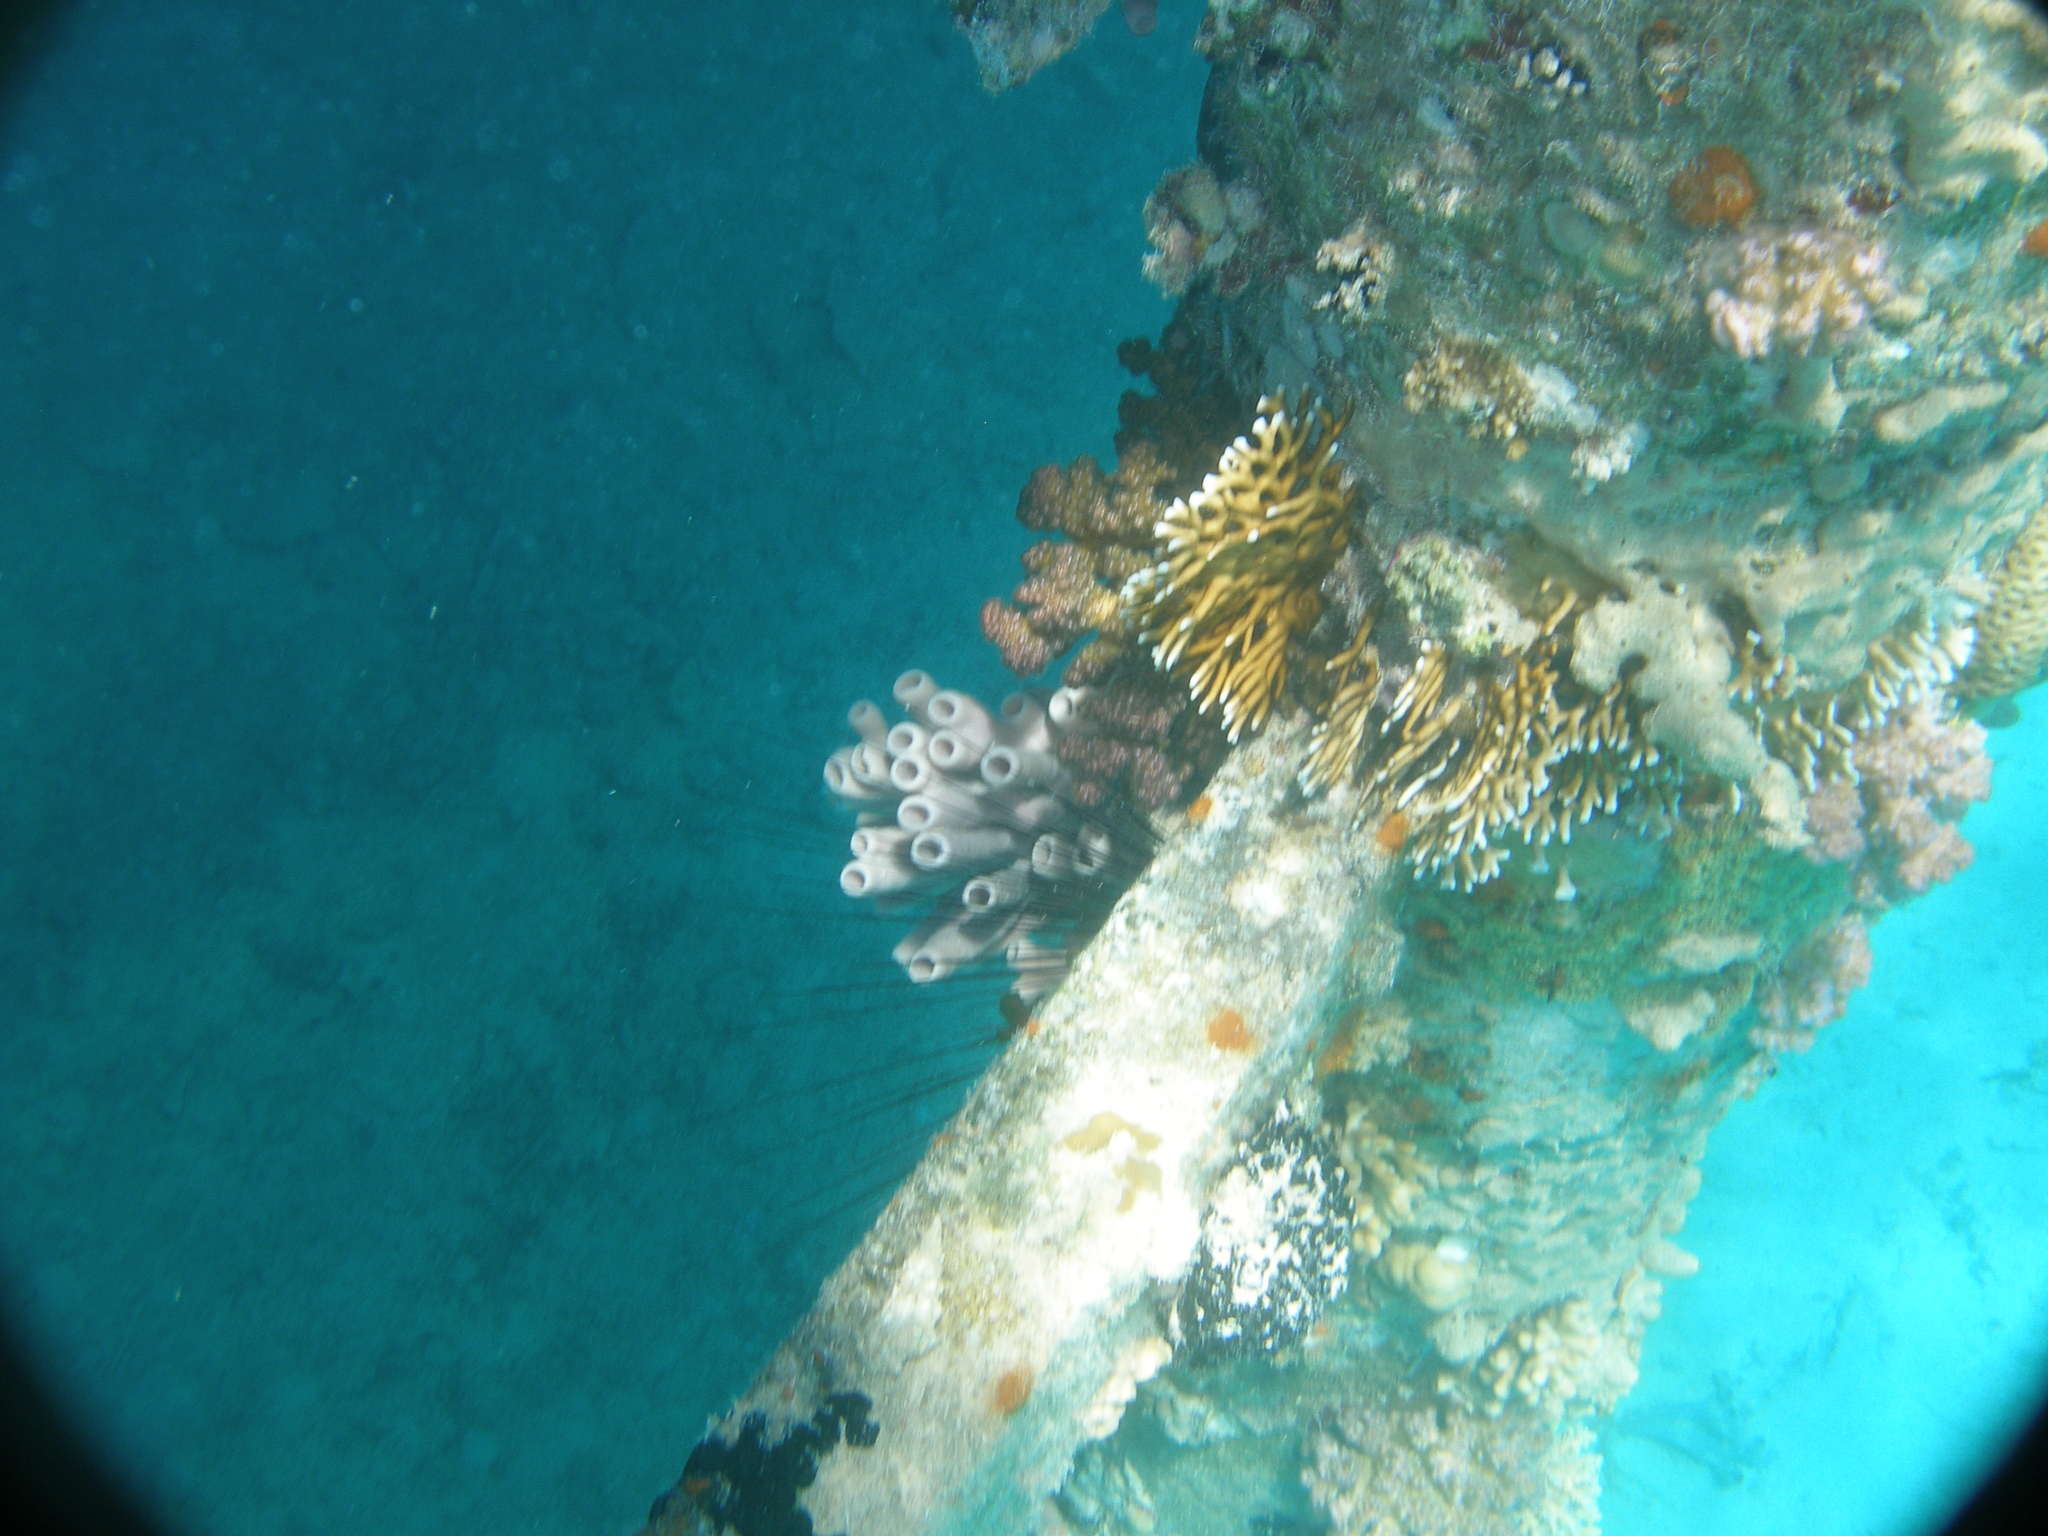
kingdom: Animalia
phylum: Porifera
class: Demospongiae
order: Haplosclerida
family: Callyspongiidae
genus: Callyspongia
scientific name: Callyspongia siphonella
